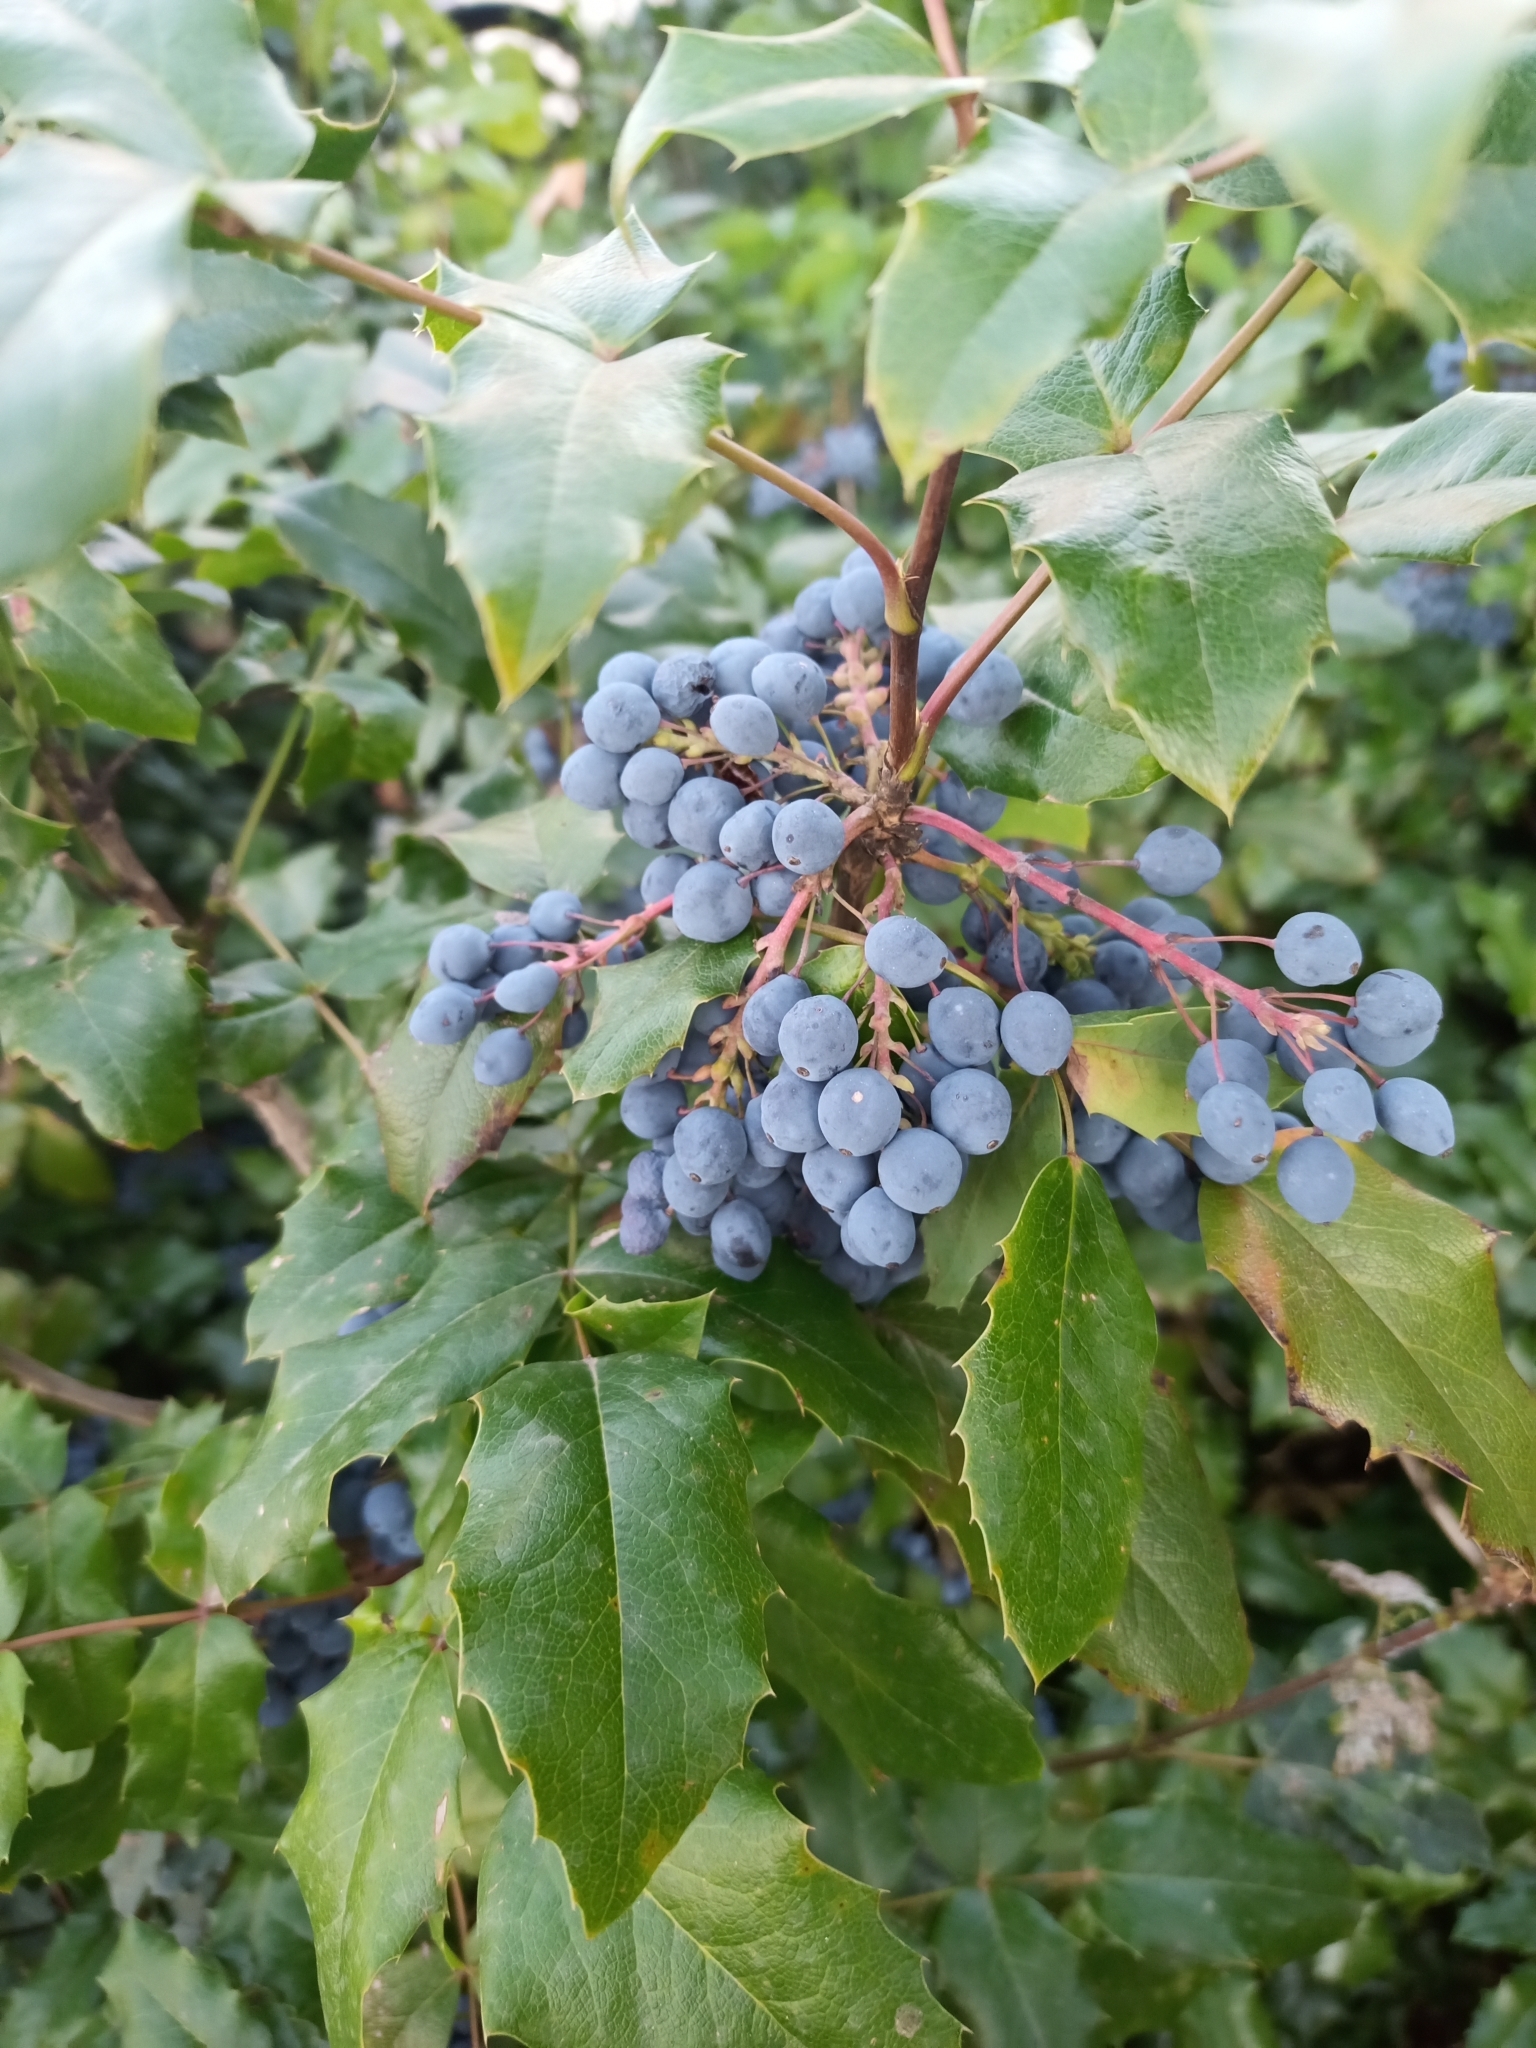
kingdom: Plantae
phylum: Tracheophyta
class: Magnoliopsida
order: Ranunculales
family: Berberidaceae
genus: Mahonia
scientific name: Mahonia aquifolium
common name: Oregon-grape
